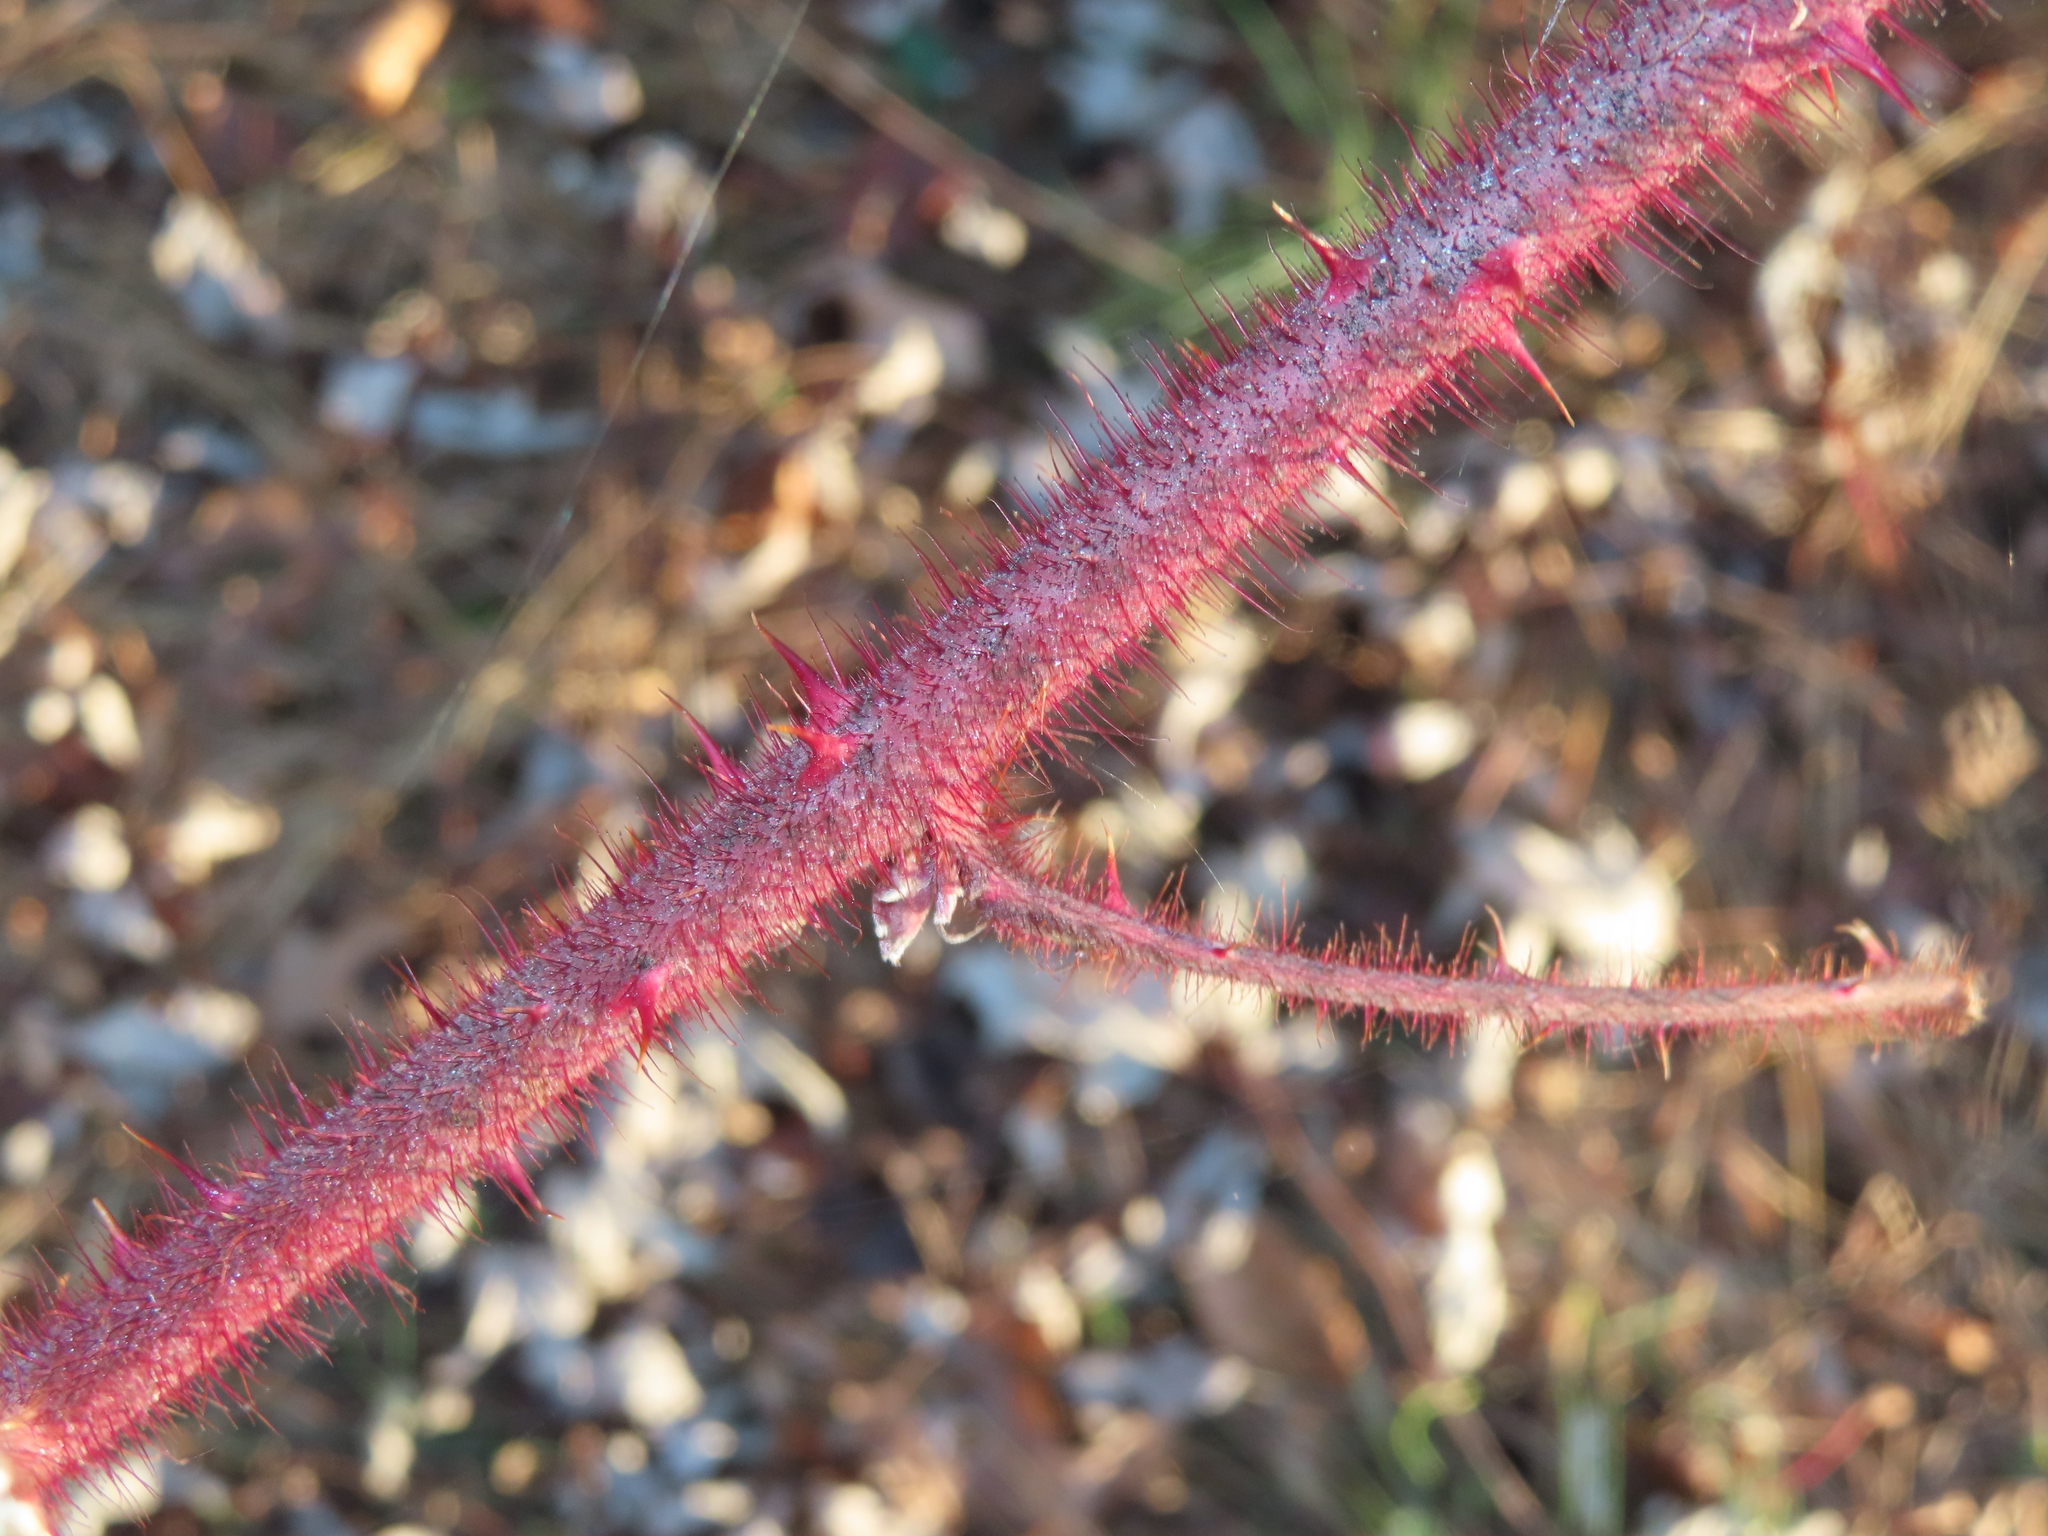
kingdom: Plantae
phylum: Tracheophyta
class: Magnoliopsida
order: Rosales
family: Rosaceae
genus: Rubus
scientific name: Rubus phoenicolasius
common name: Japanese wineberry
